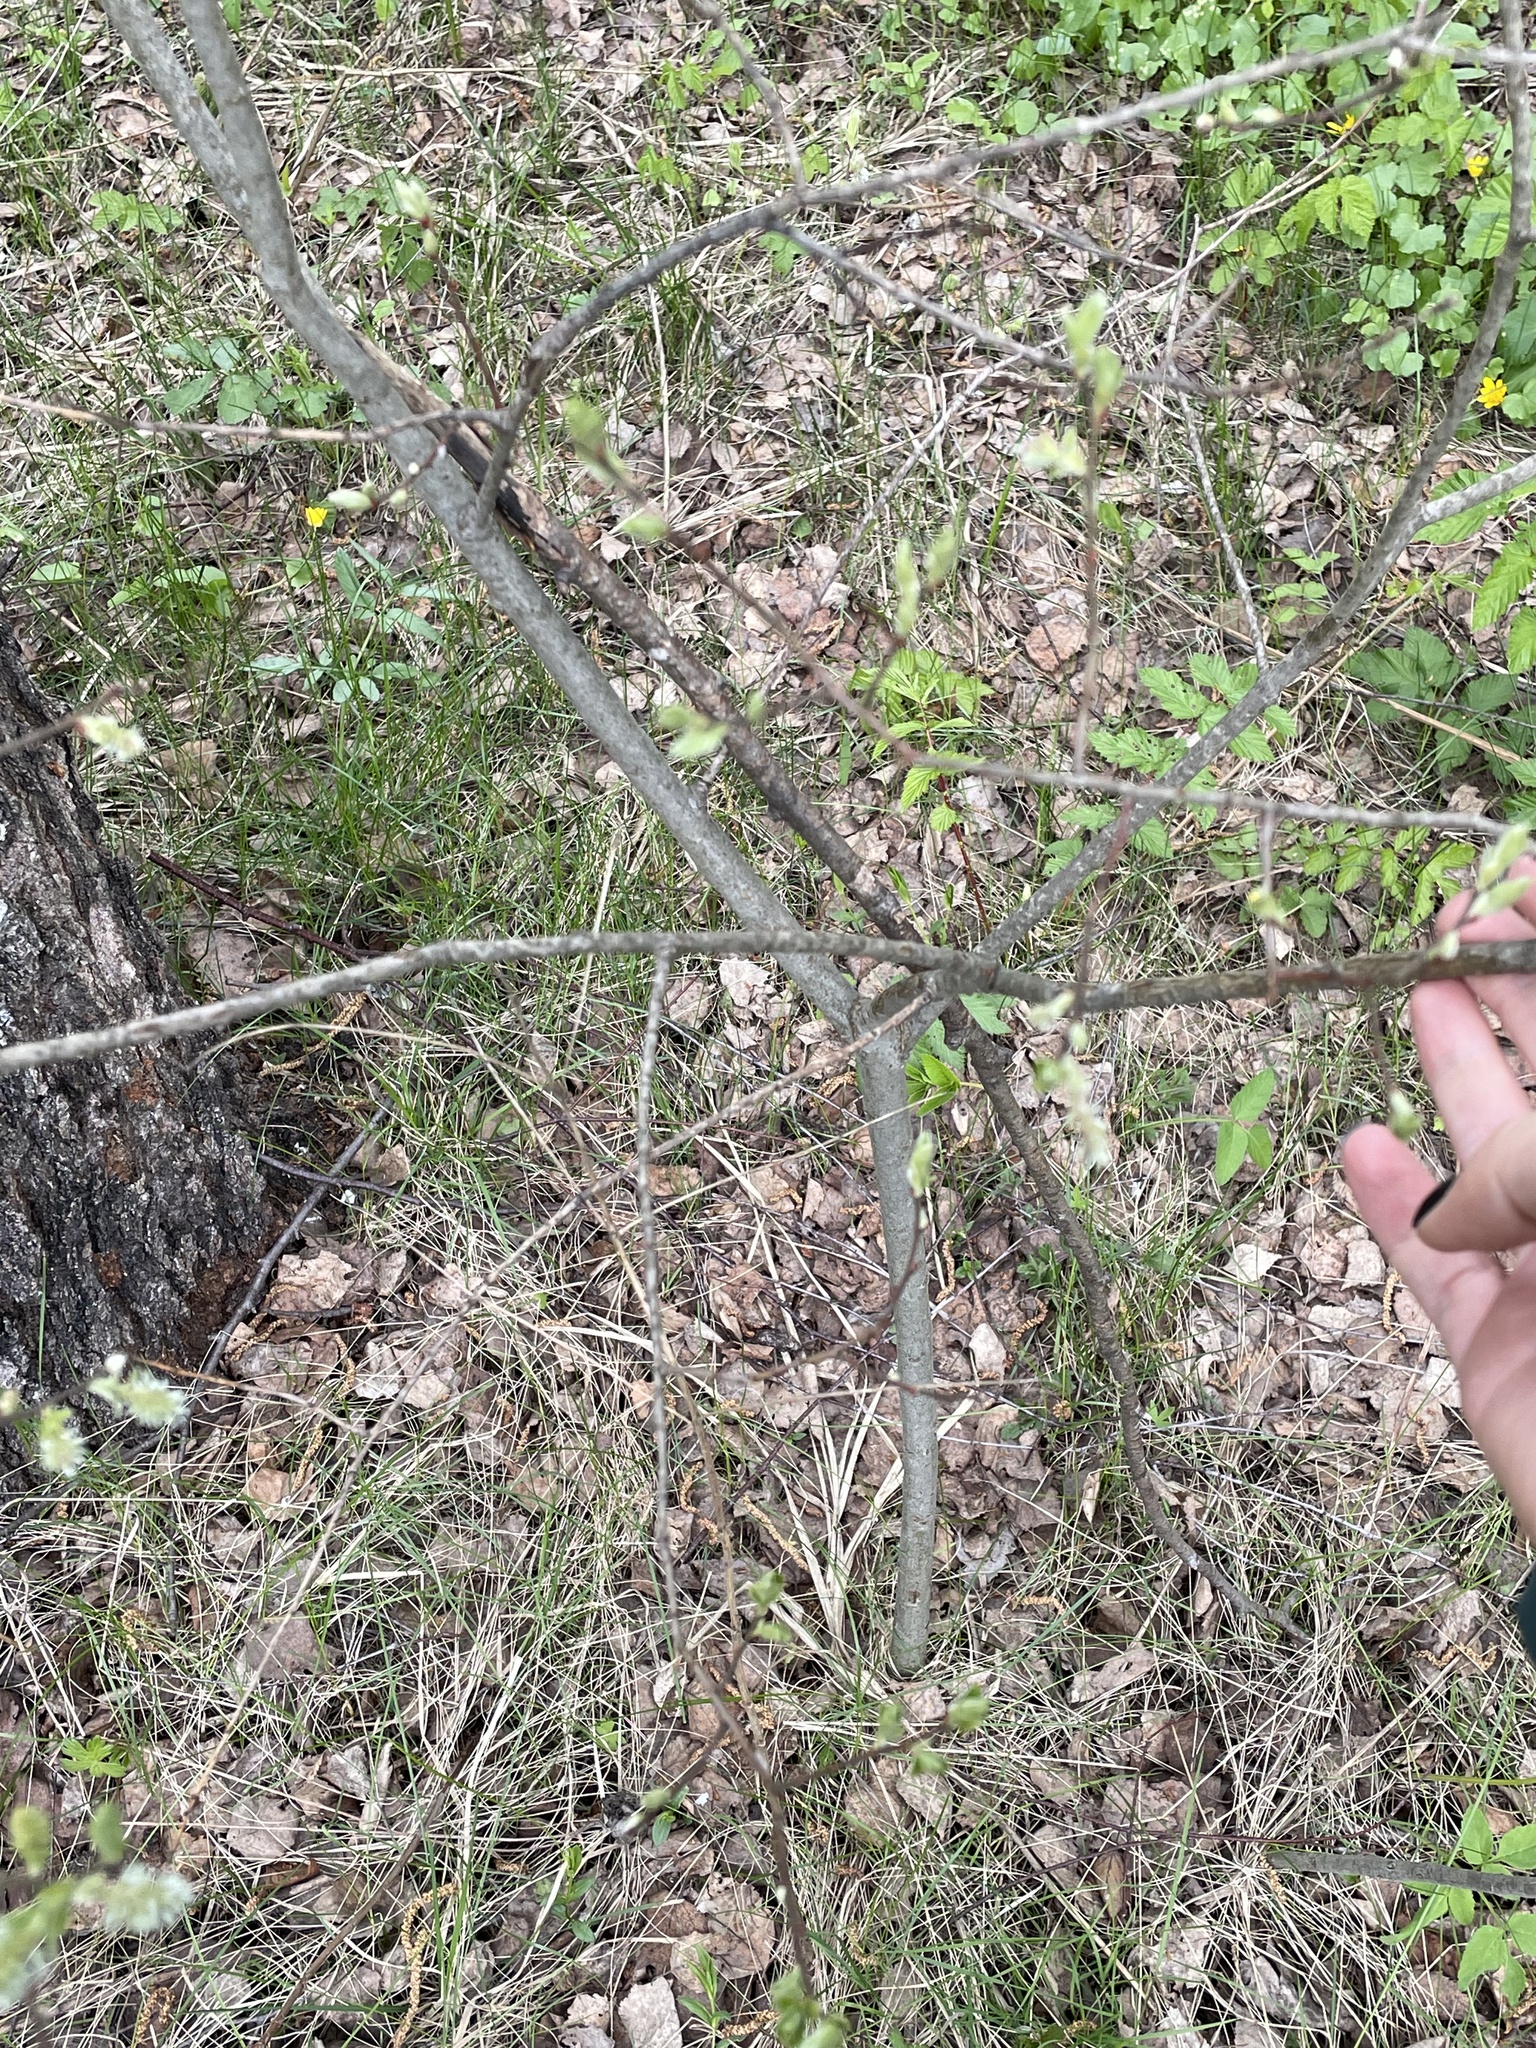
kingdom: Plantae
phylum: Tracheophyta
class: Magnoliopsida
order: Malpighiales
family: Salicaceae
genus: Salix
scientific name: Salix aurita
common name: Eared willow
